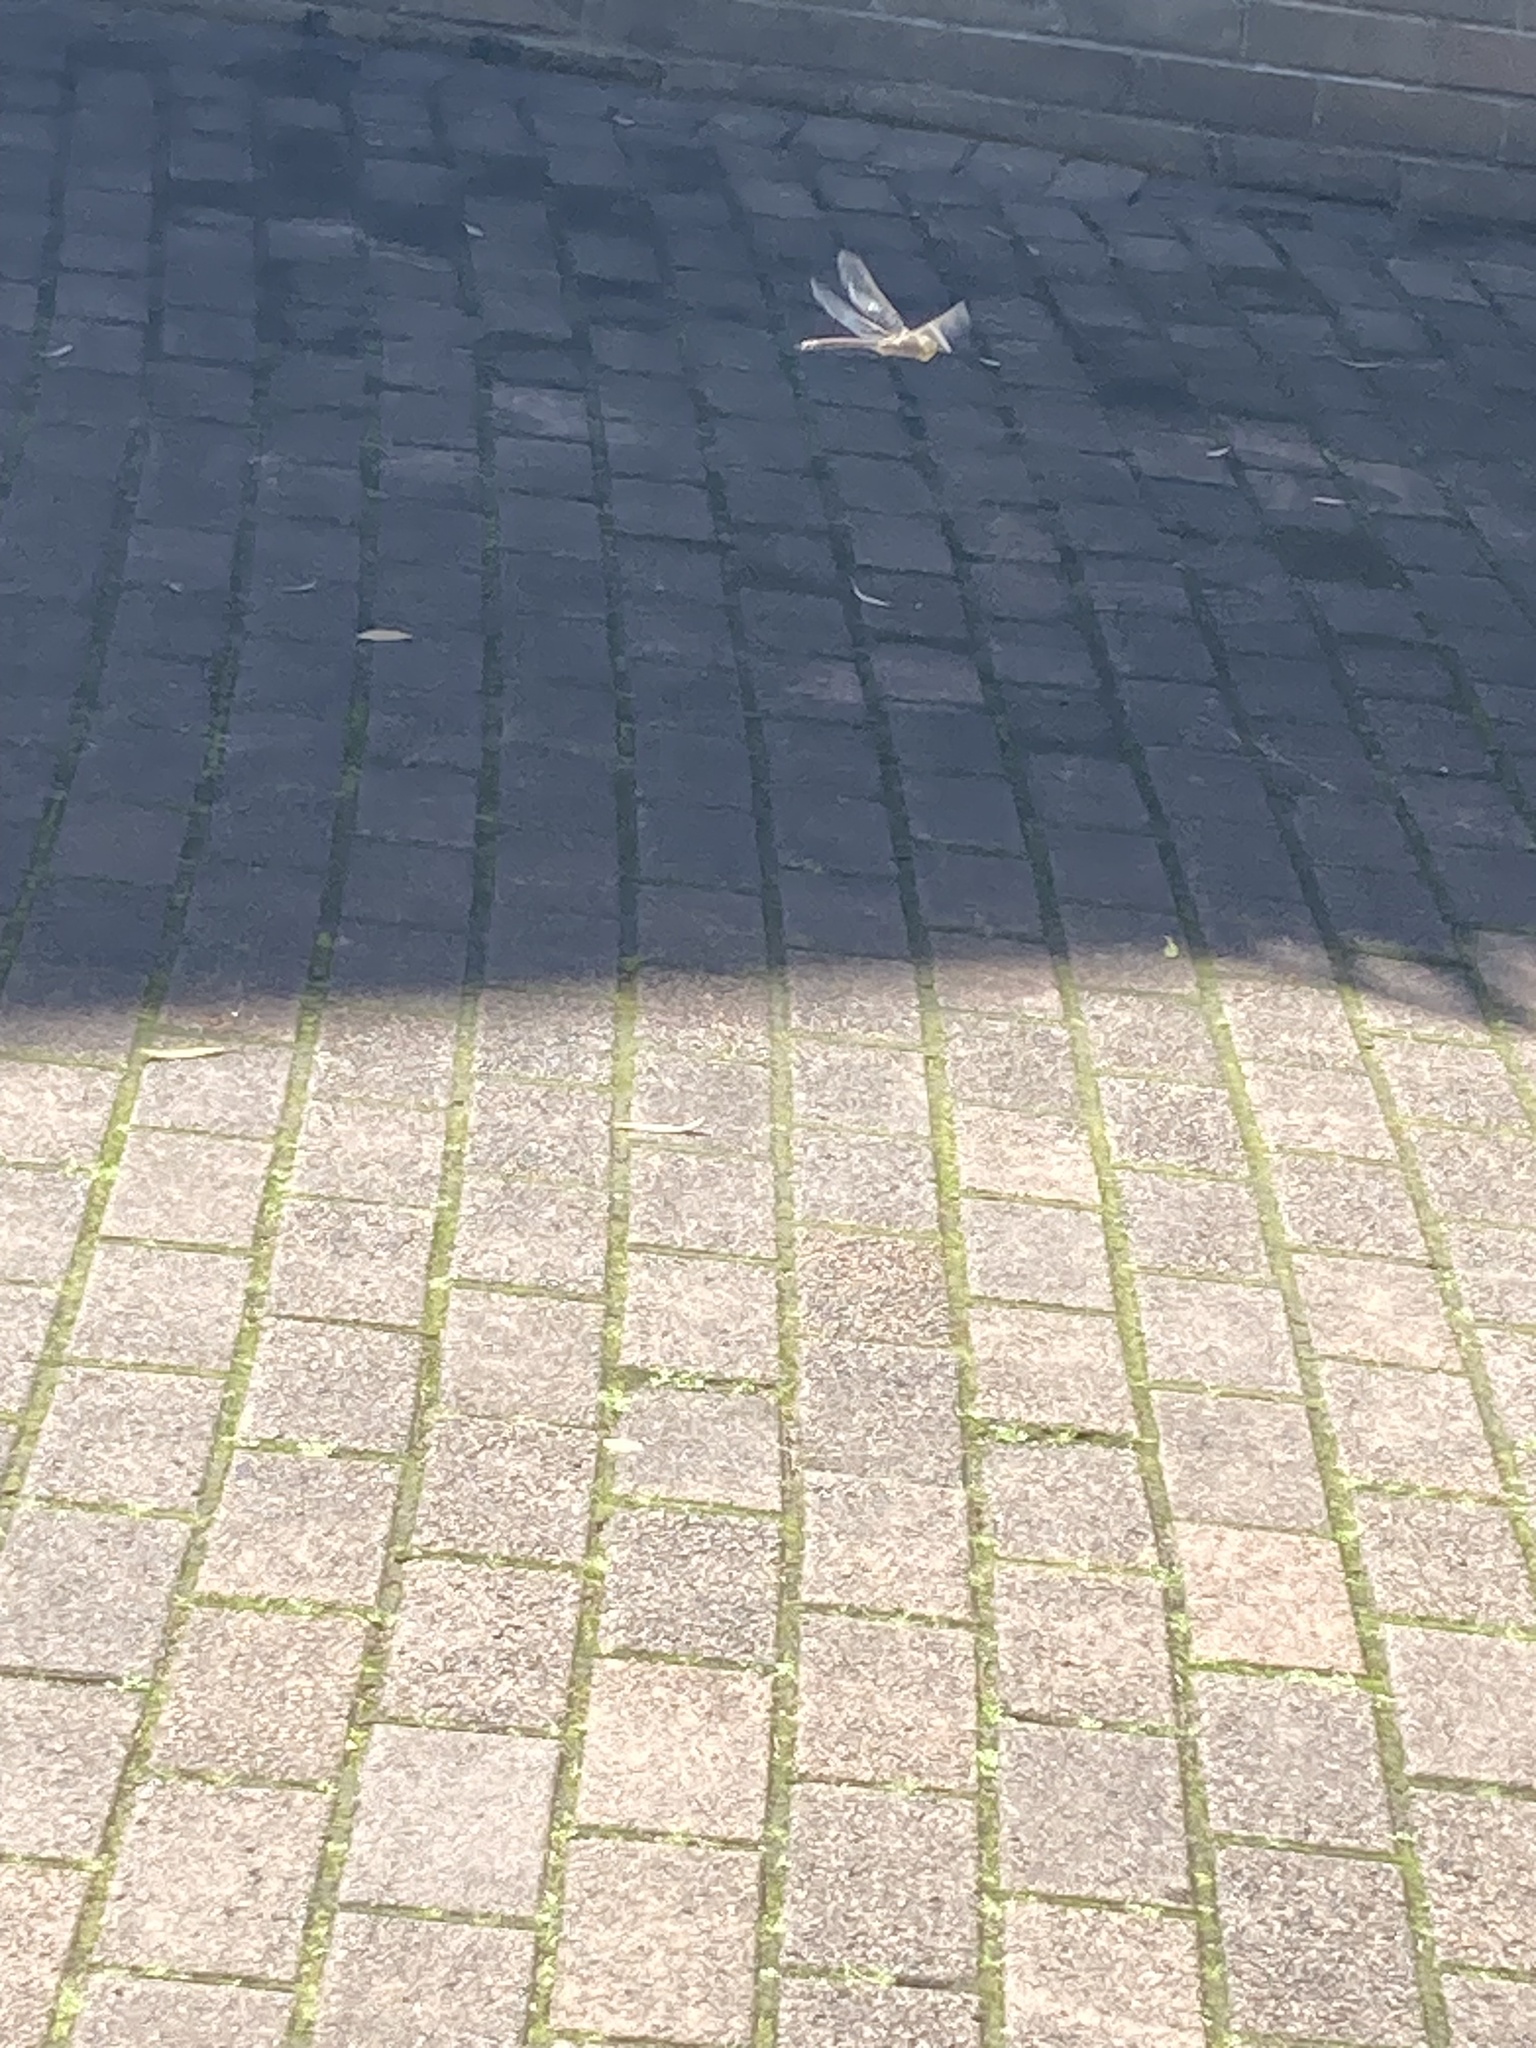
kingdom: Animalia
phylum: Arthropoda
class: Insecta
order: Odonata
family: Aeshnidae
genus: Anax
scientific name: Anax papuensis
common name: Australian emperor
